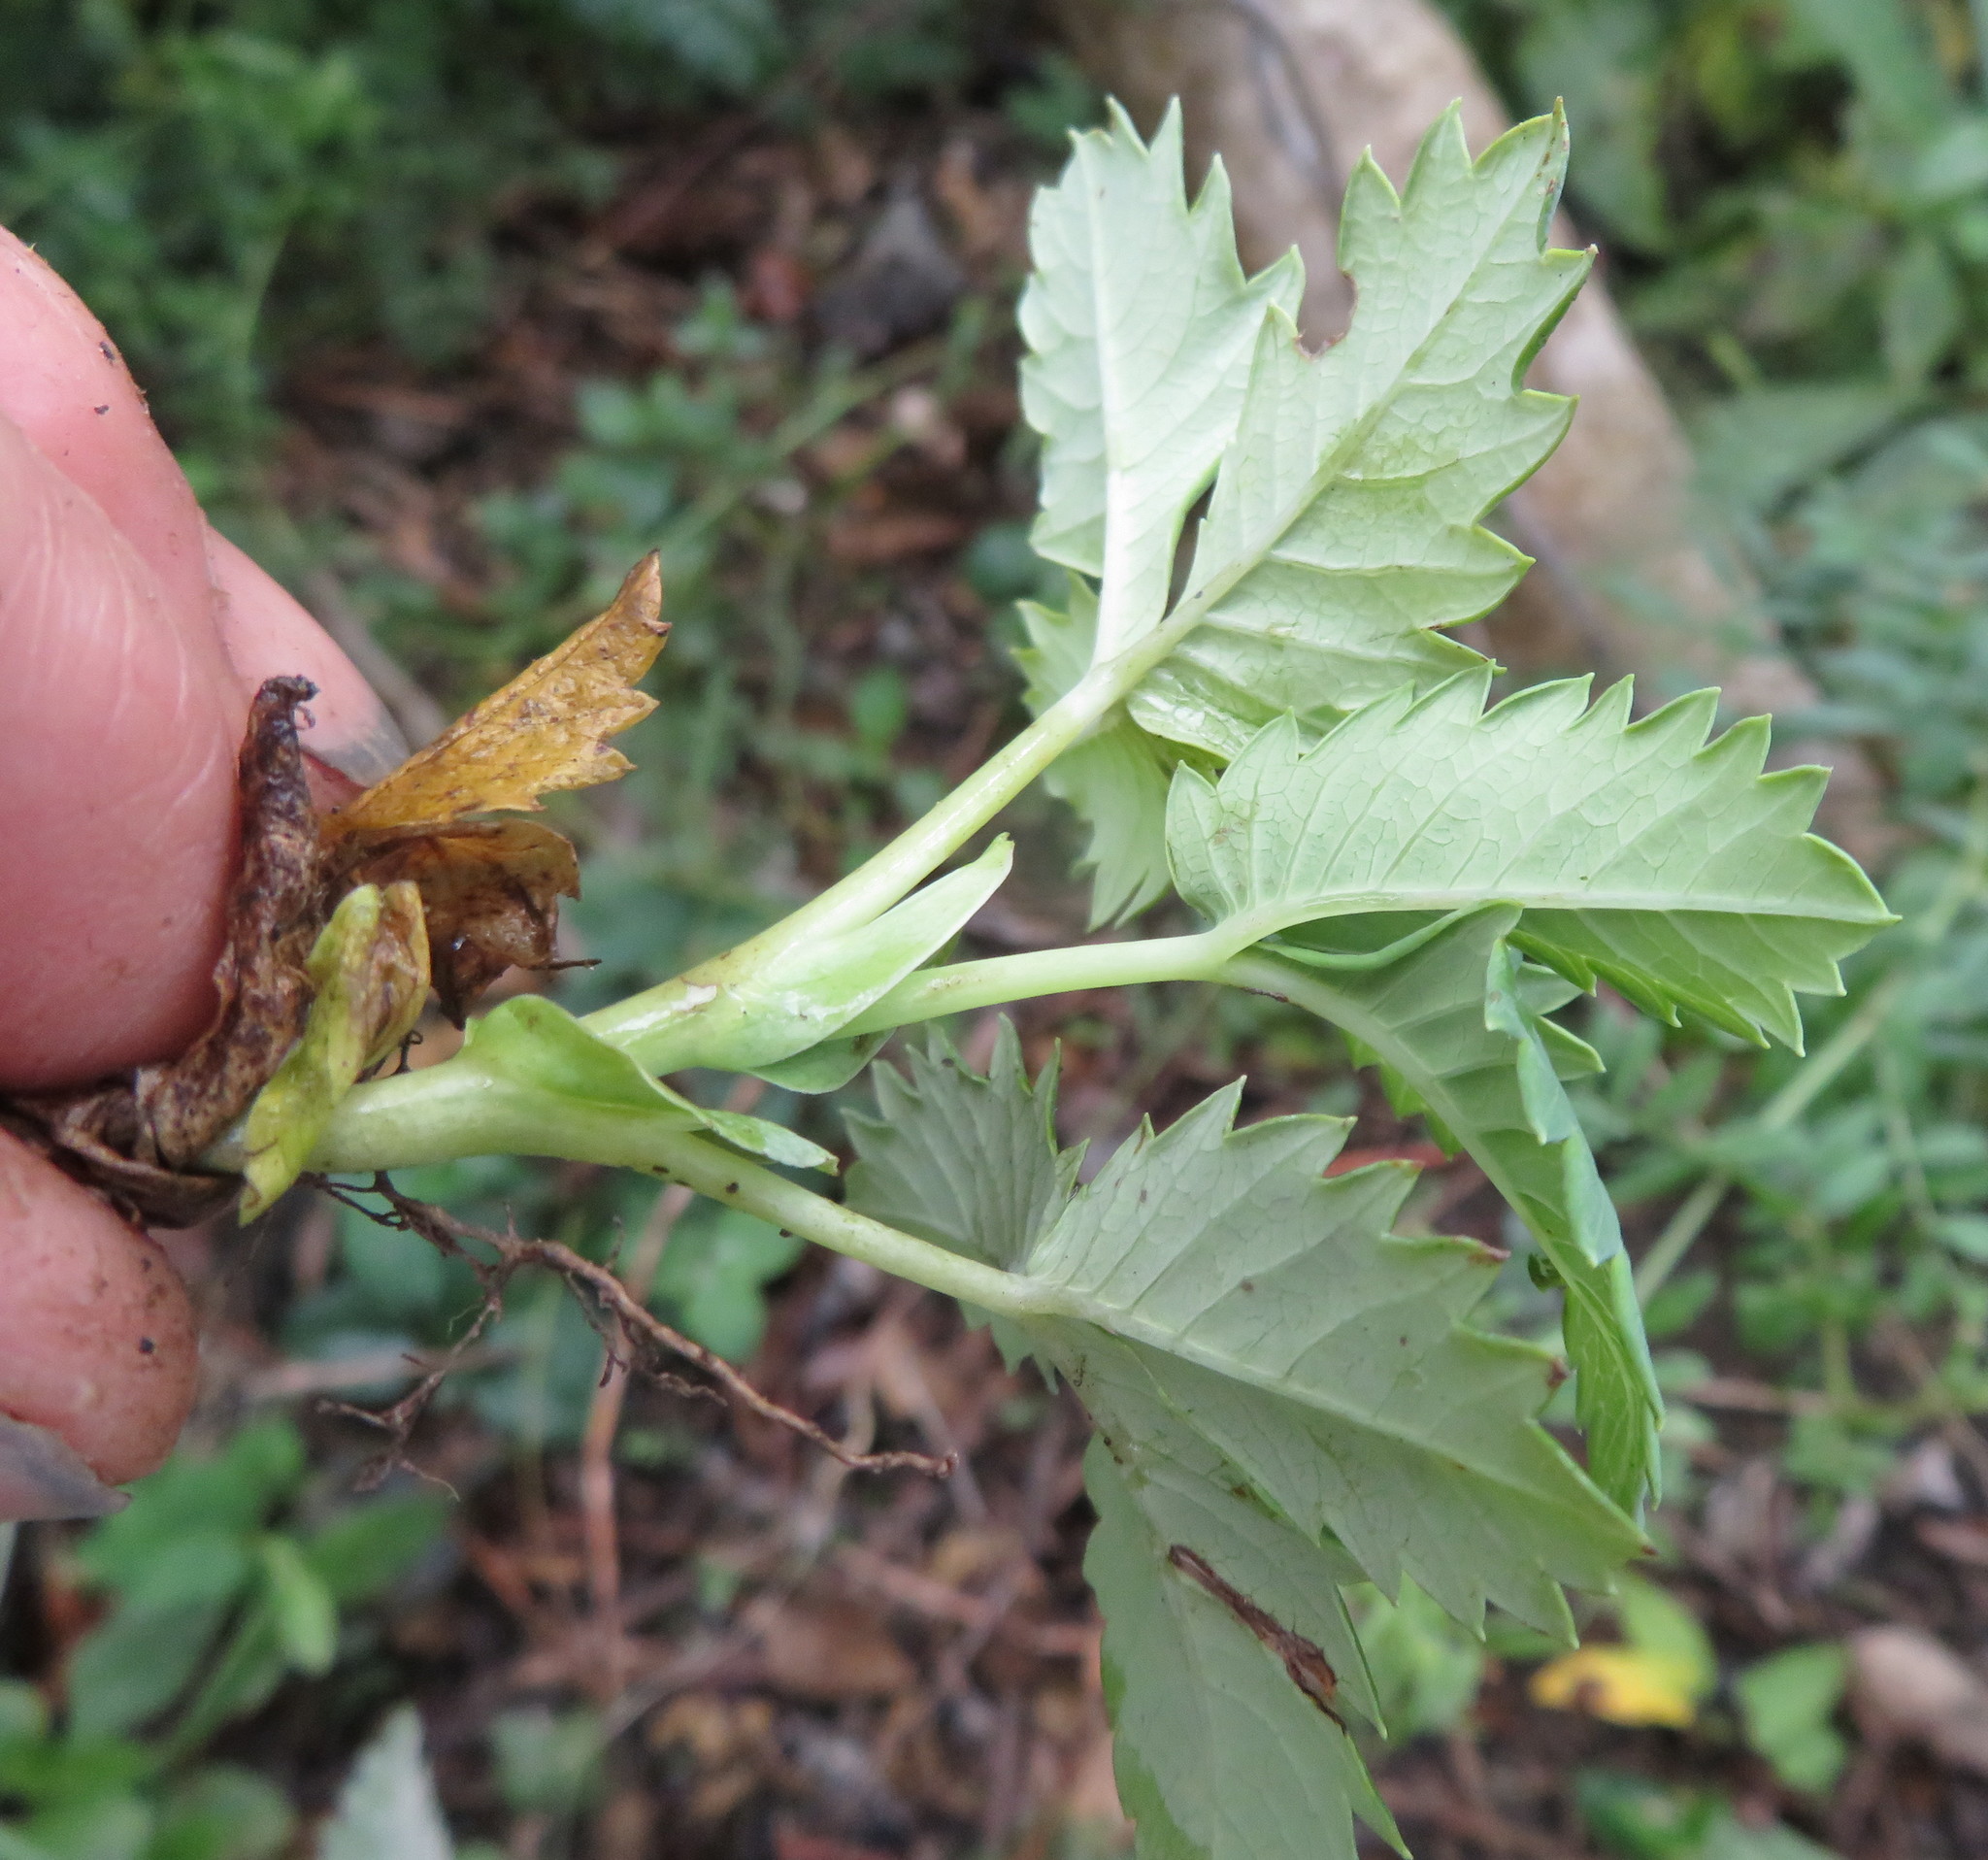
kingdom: Plantae
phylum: Tracheophyta
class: Magnoliopsida
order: Geraniales
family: Melianthaceae
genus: Melianthus
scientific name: Melianthus major
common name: Honey-flower
